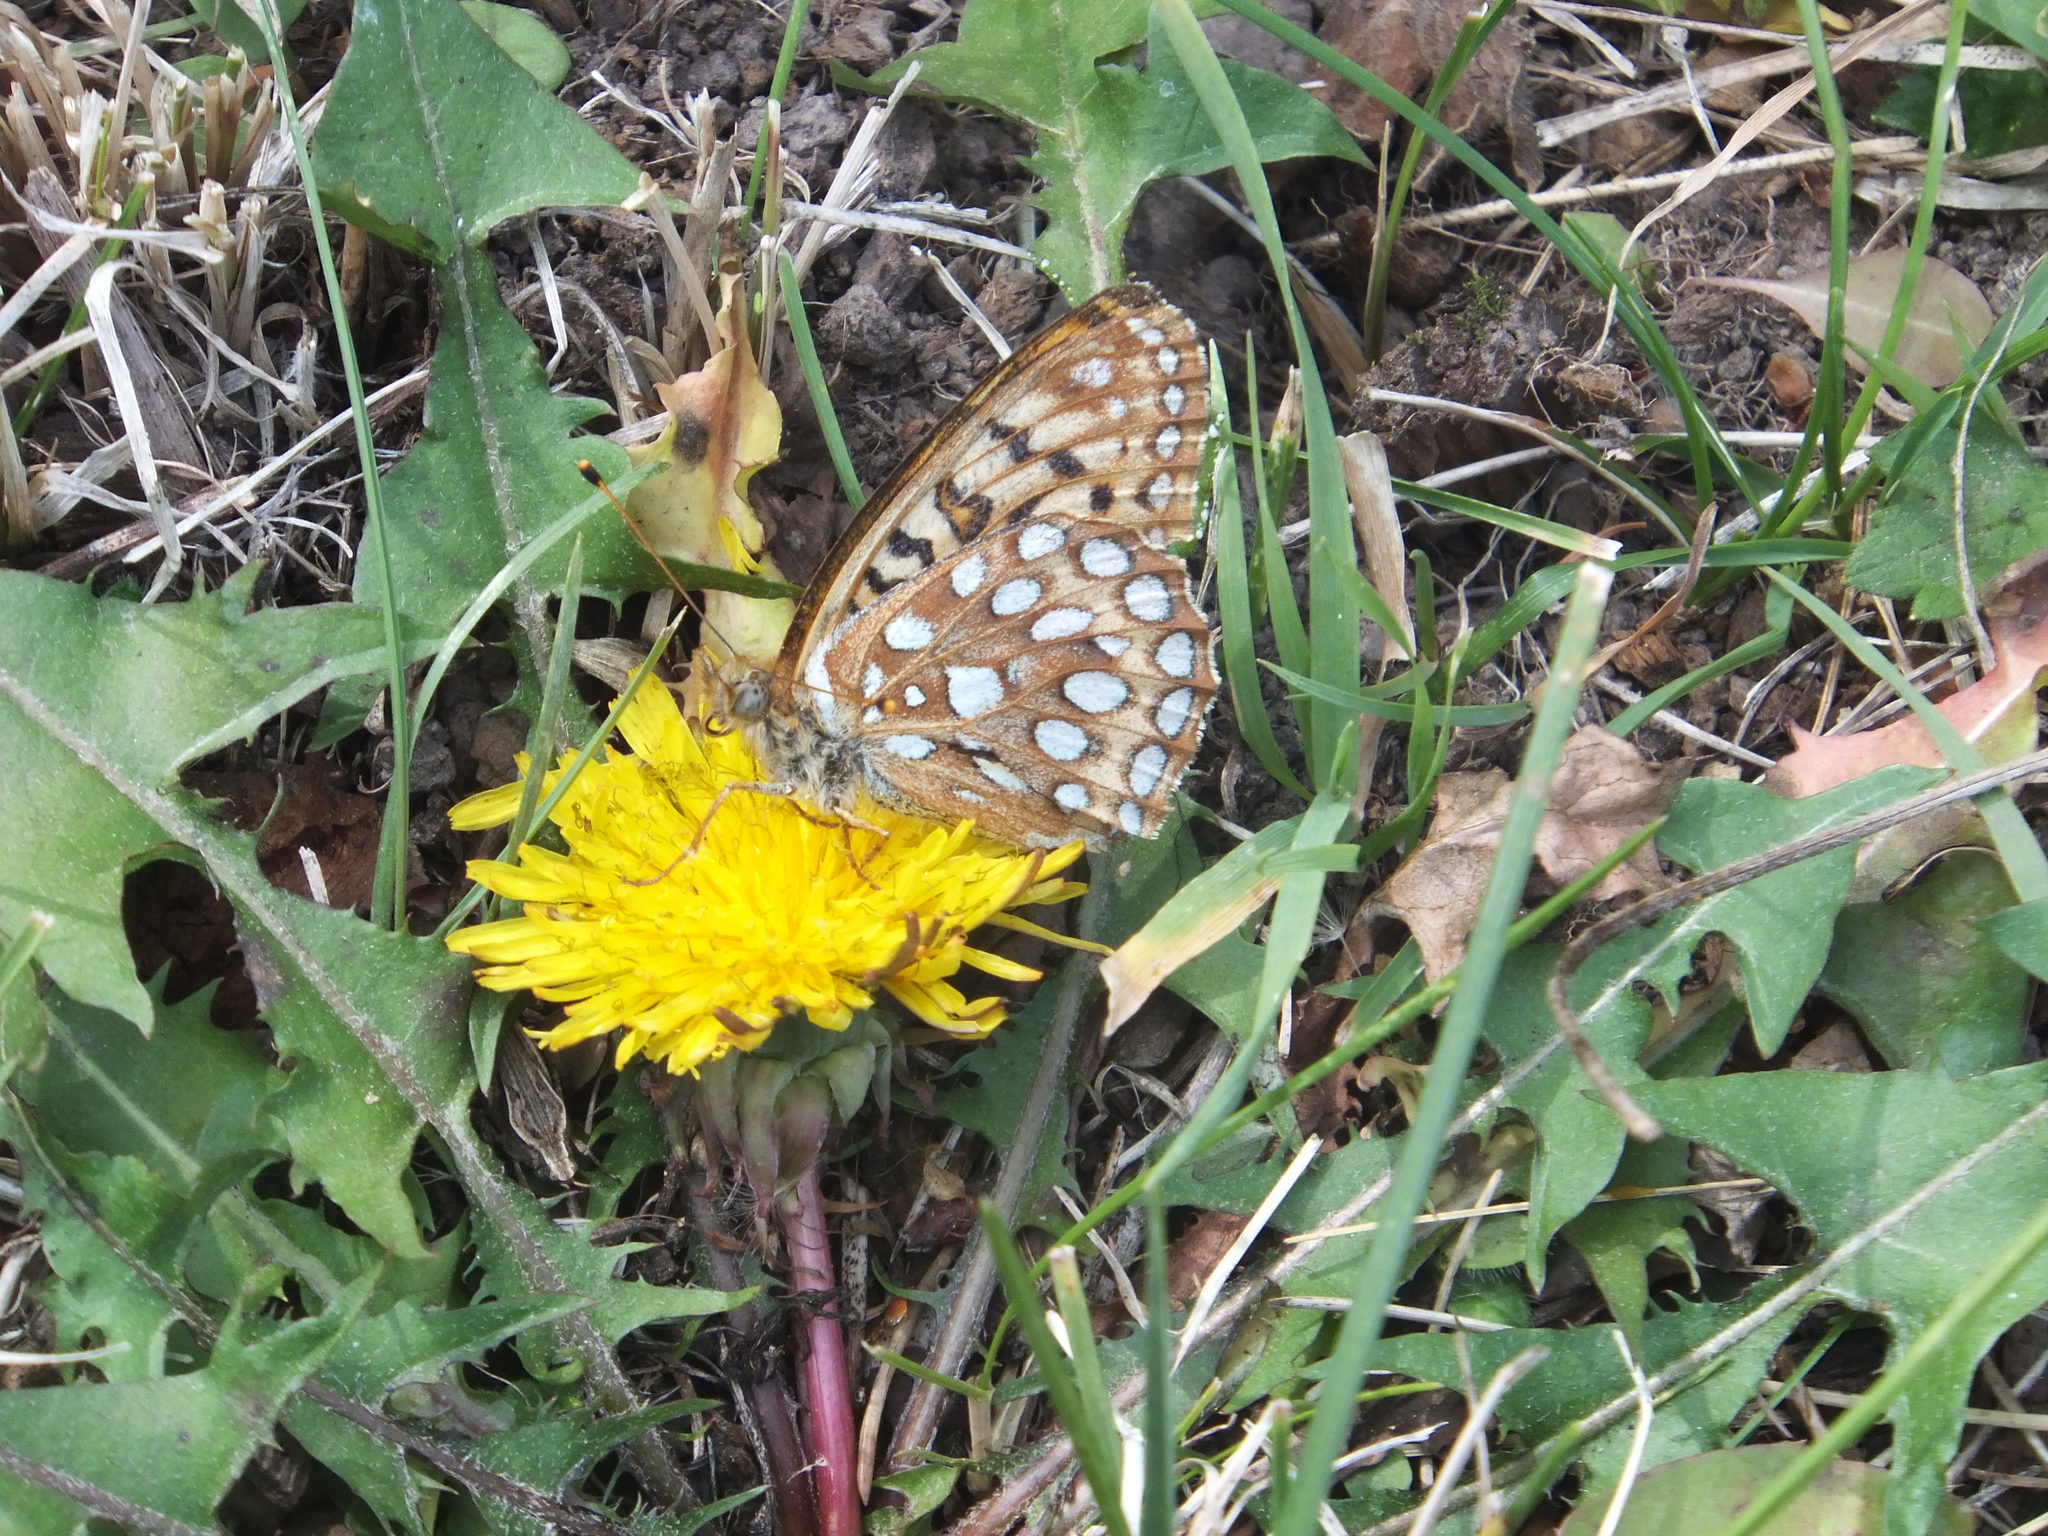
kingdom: Animalia
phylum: Arthropoda
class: Insecta
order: Lepidoptera
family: Nymphalidae
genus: Speyeria
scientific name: Speyeria zerene
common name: Zerene fritillary
